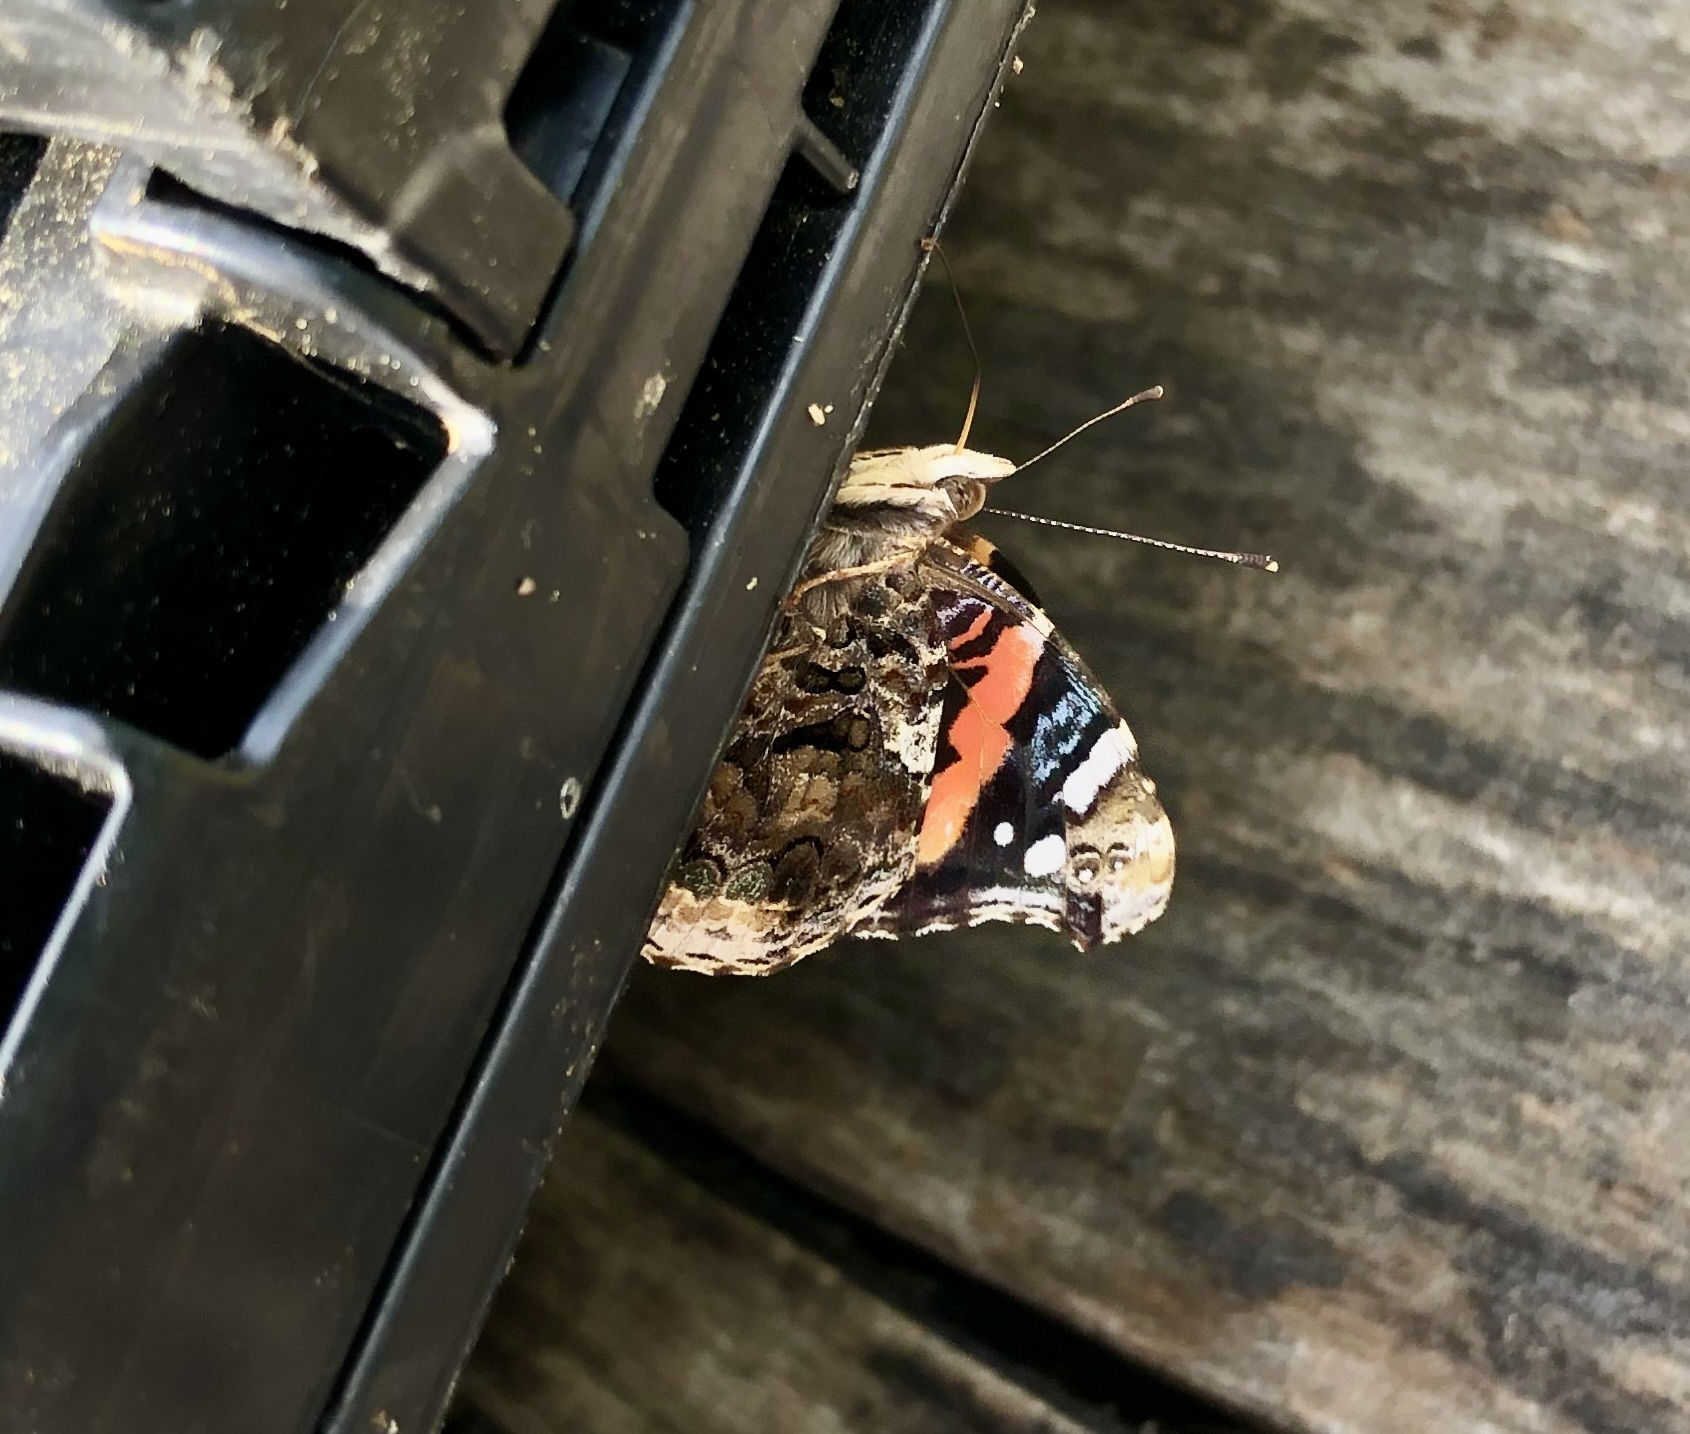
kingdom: Animalia
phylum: Arthropoda
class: Insecta
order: Lepidoptera
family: Nymphalidae
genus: Vanessa
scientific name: Vanessa atalanta
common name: Red admiral
